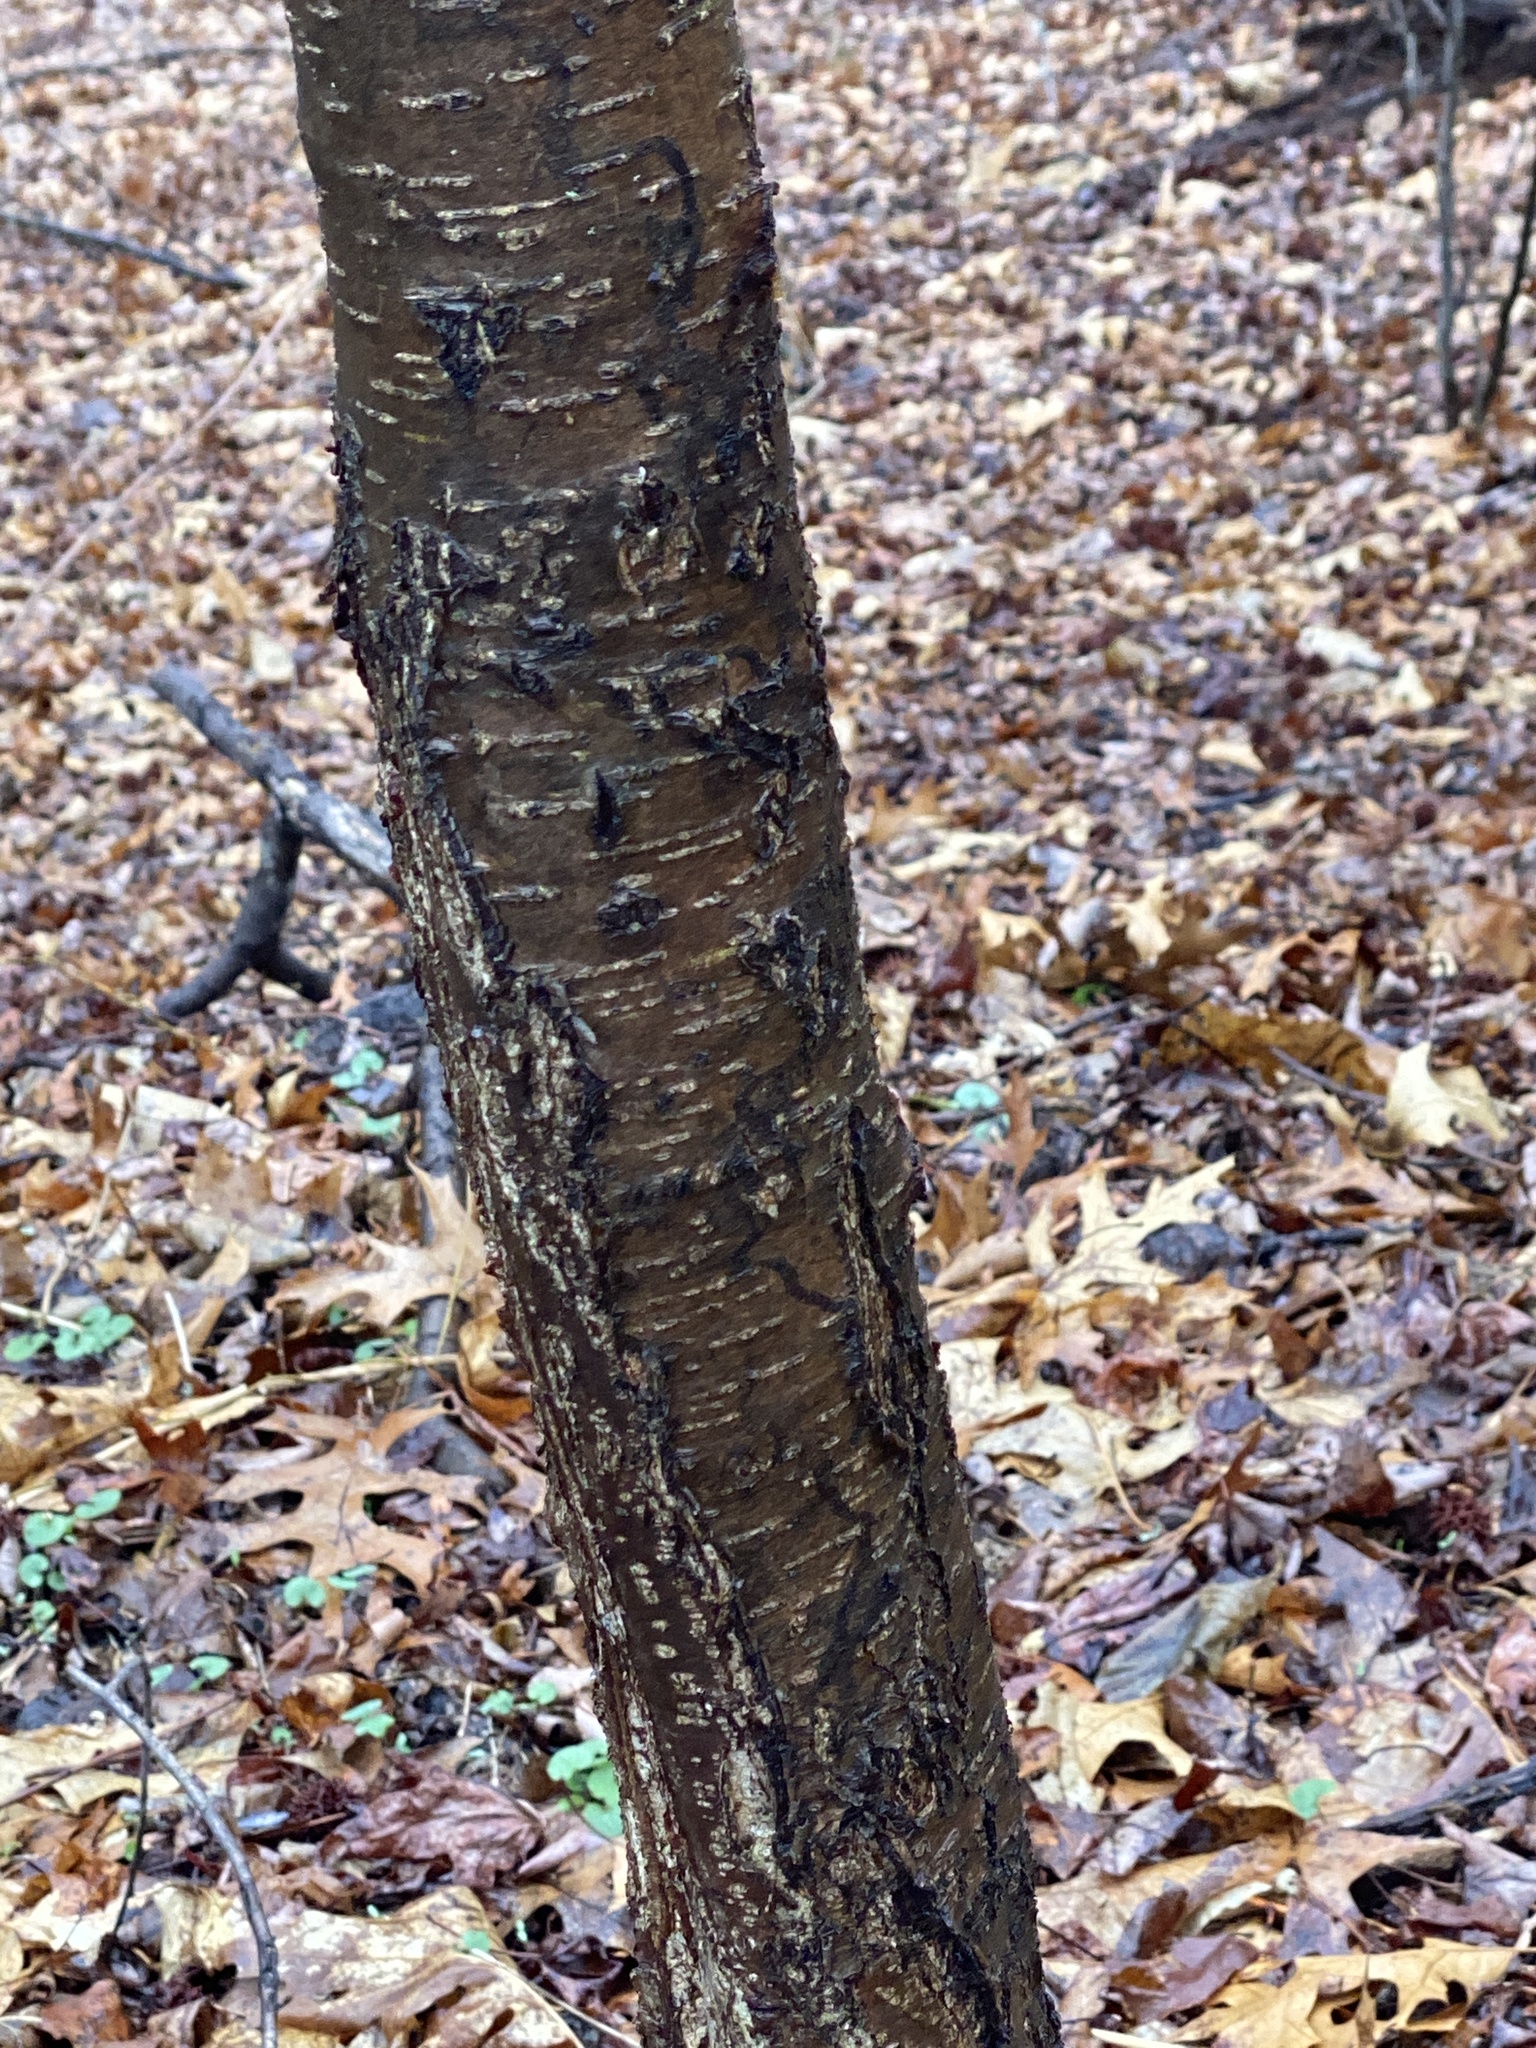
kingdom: Plantae
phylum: Tracheophyta
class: Magnoliopsida
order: Fagales
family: Betulaceae
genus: Betula
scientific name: Betula lenta
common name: Black birch
